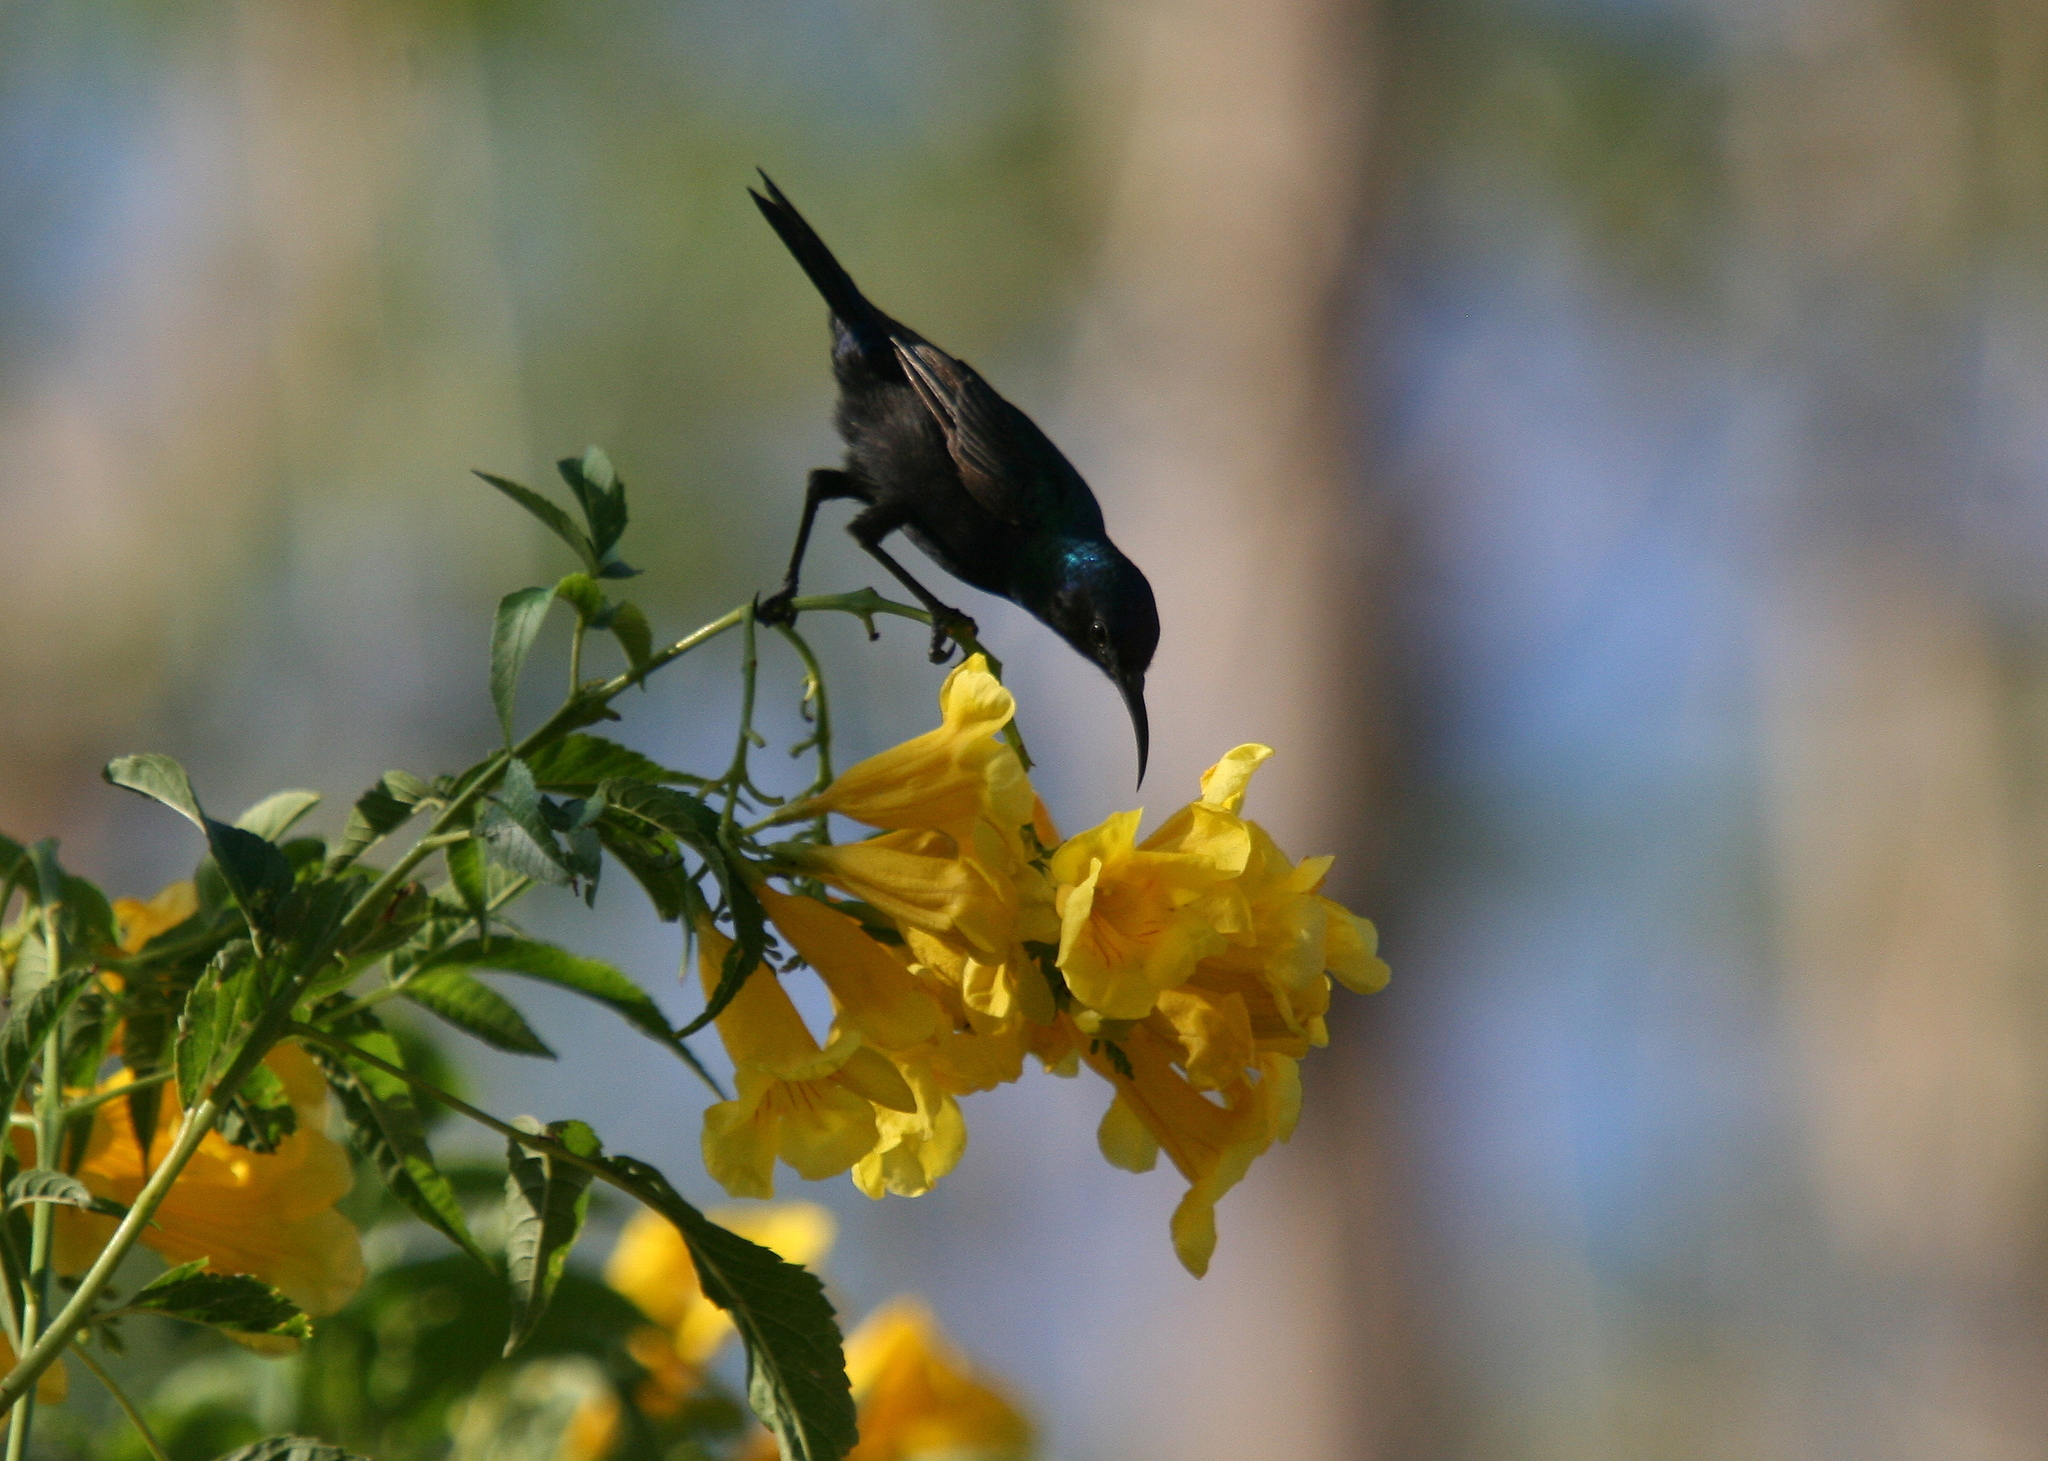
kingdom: Animalia
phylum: Chordata
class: Aves
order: Passeriformes
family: Nectariniidae
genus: Cinnyris
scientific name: Cinnyris osea
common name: Palestine sunbird
